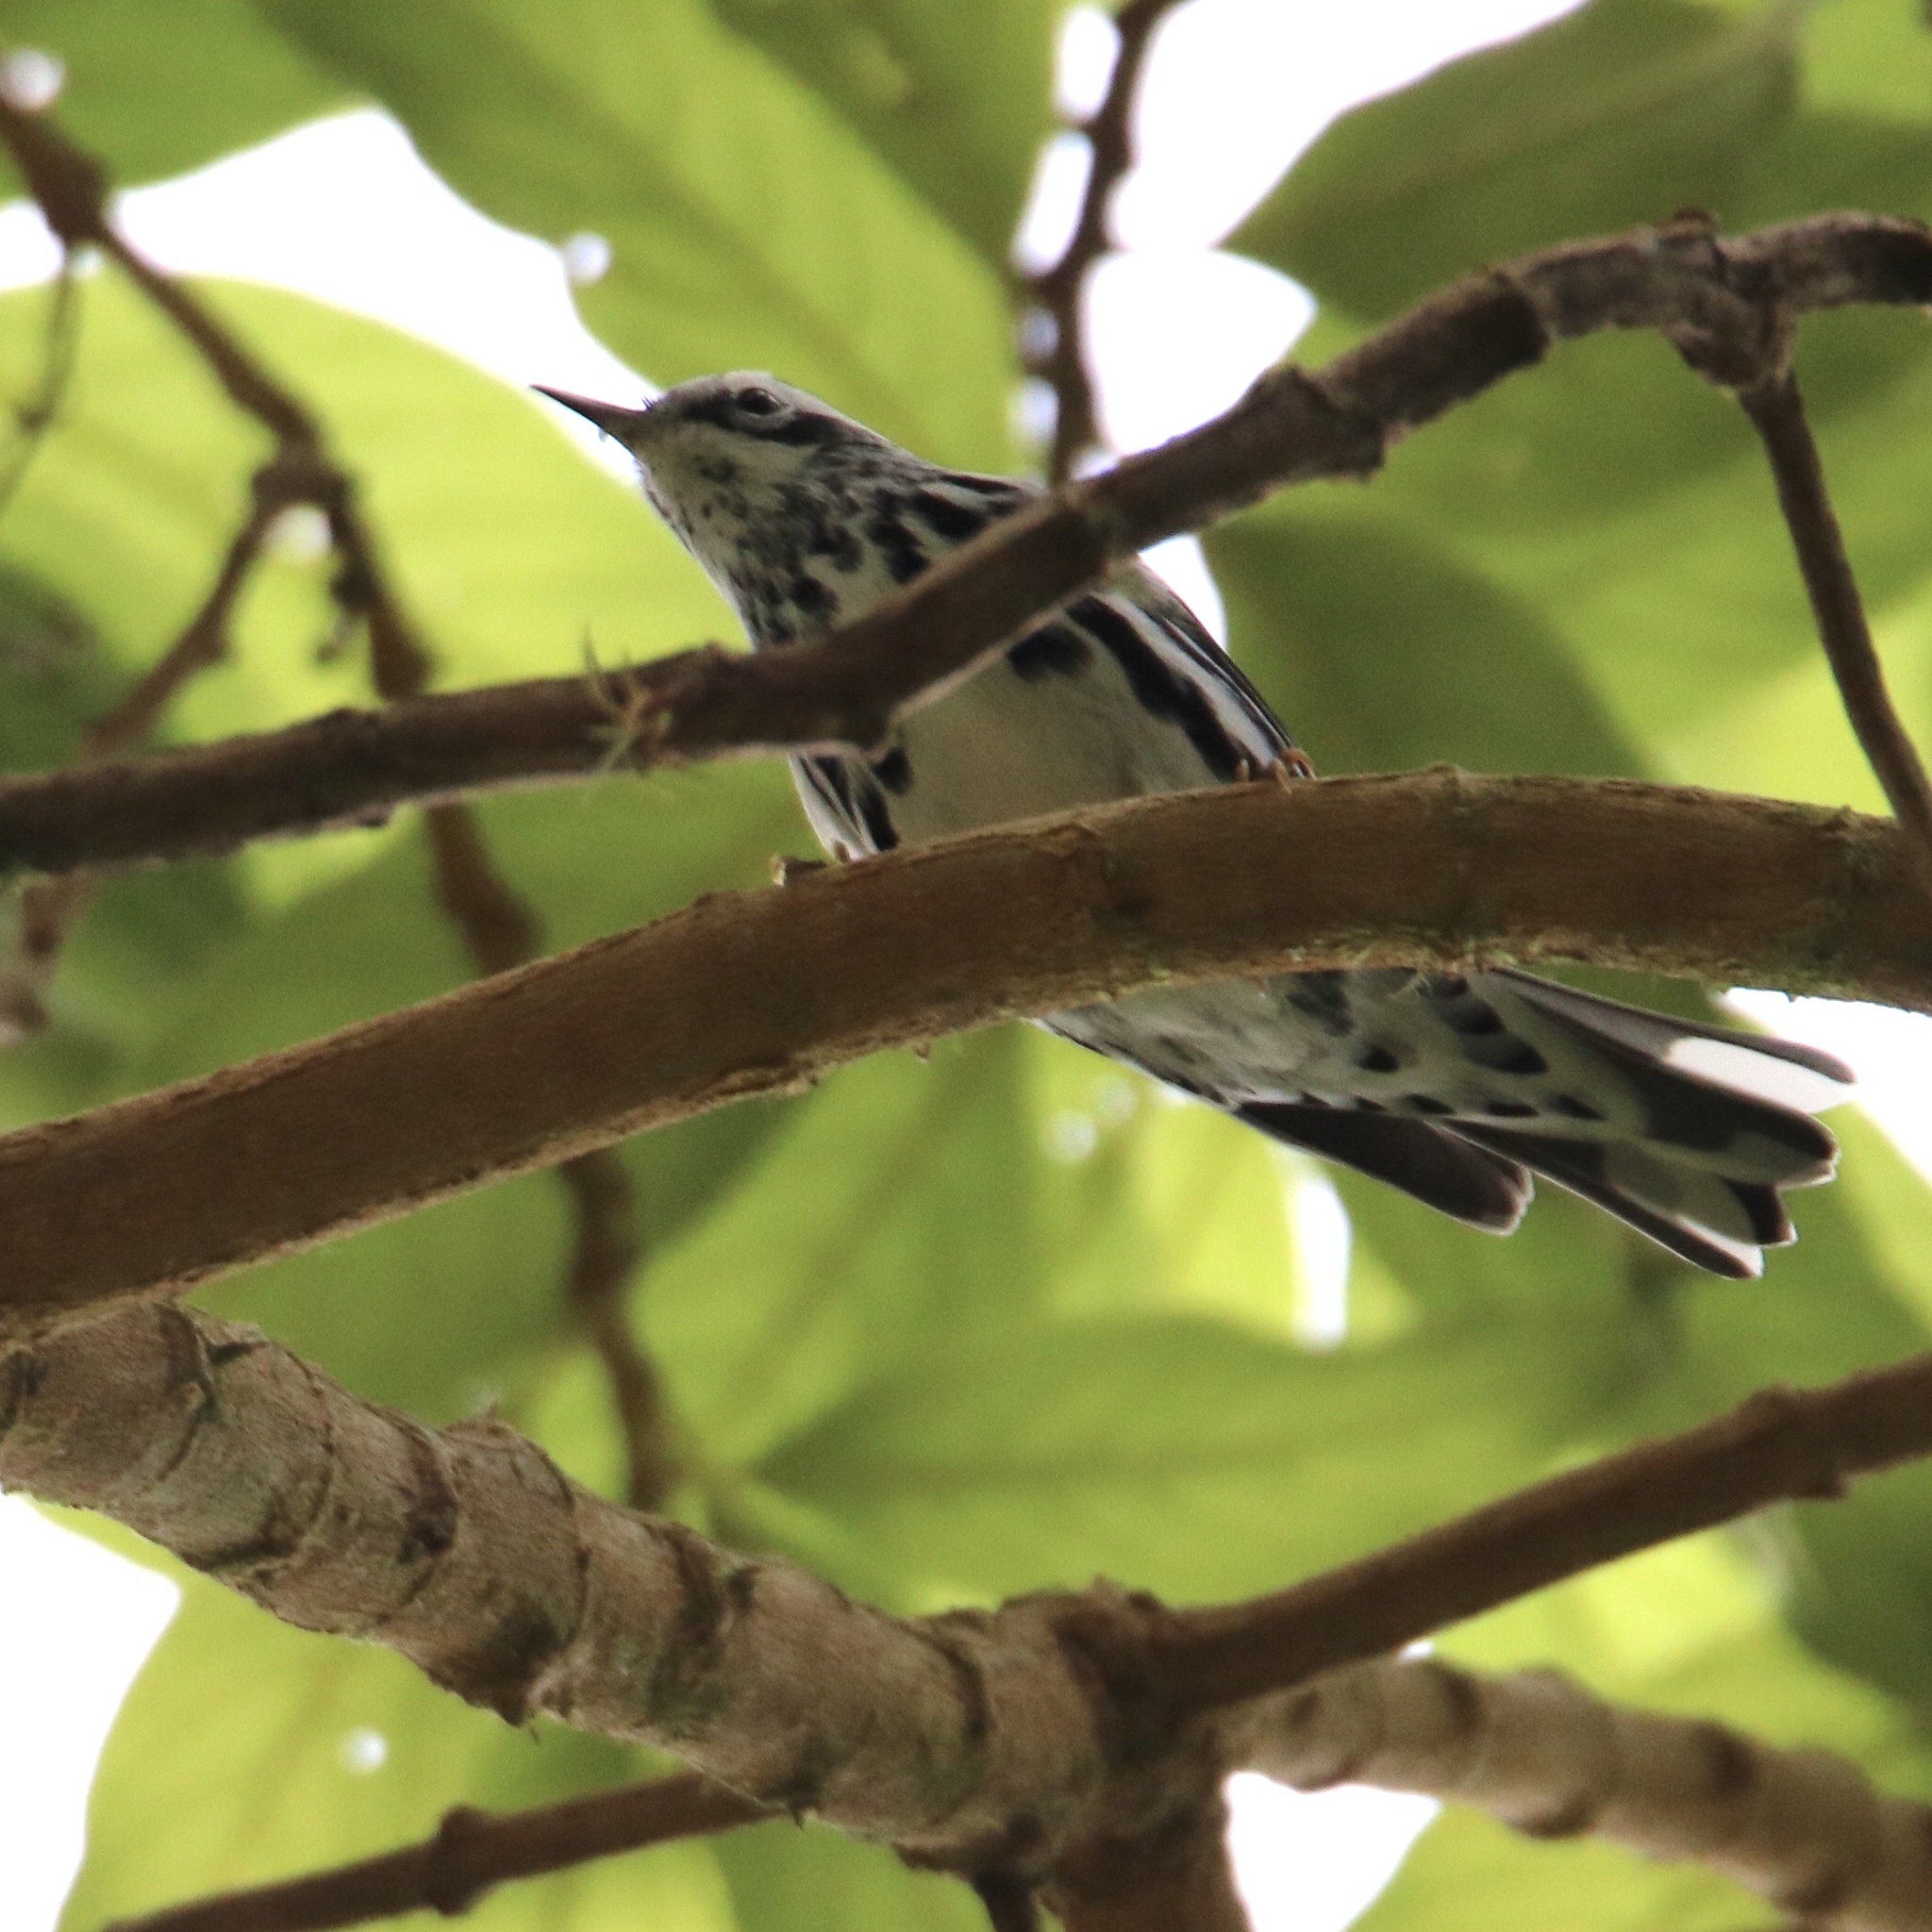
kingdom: Animalia
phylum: Chordata
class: Aves
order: Passeriformes
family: Parulidae
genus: Mniotilta
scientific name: Mniotilta varia
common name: Black-and-white warbler
